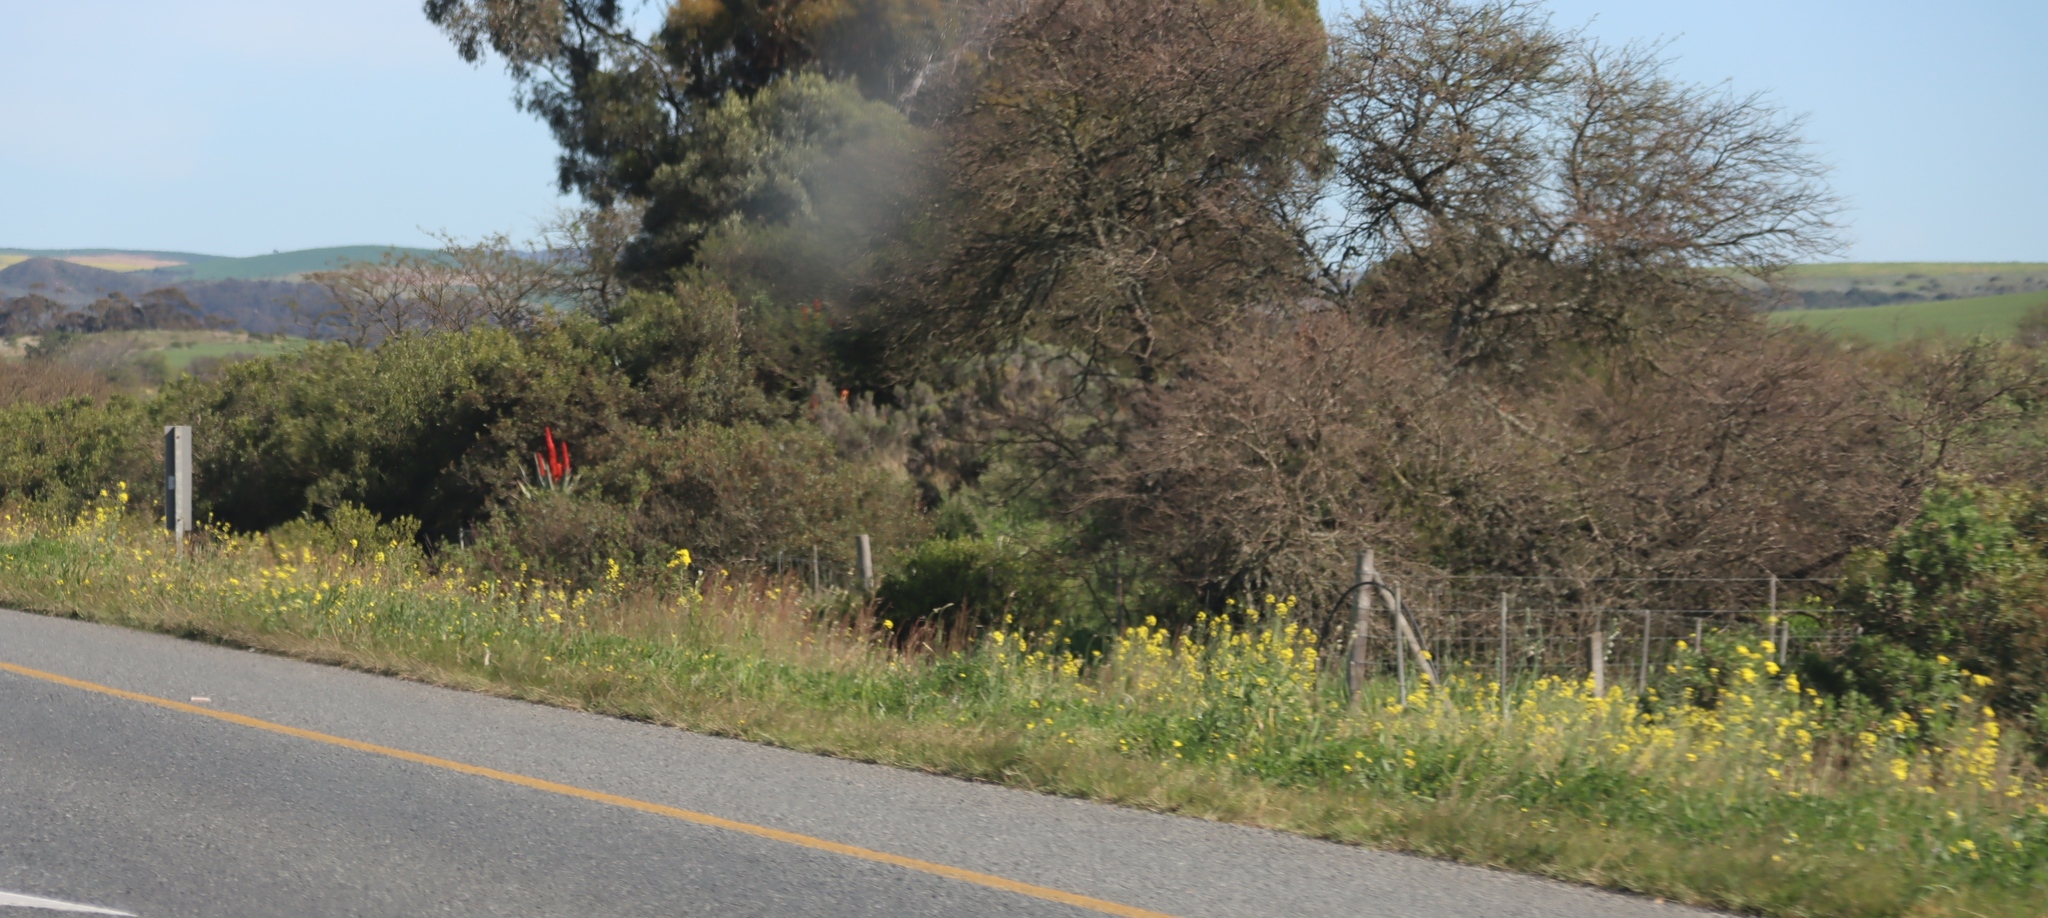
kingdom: Plantae
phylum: Tracheophyta
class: Liliopsida
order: Asparagales
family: Asphodelaceae
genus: Aloe
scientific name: Aloe ferox
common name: Bitter aloe
